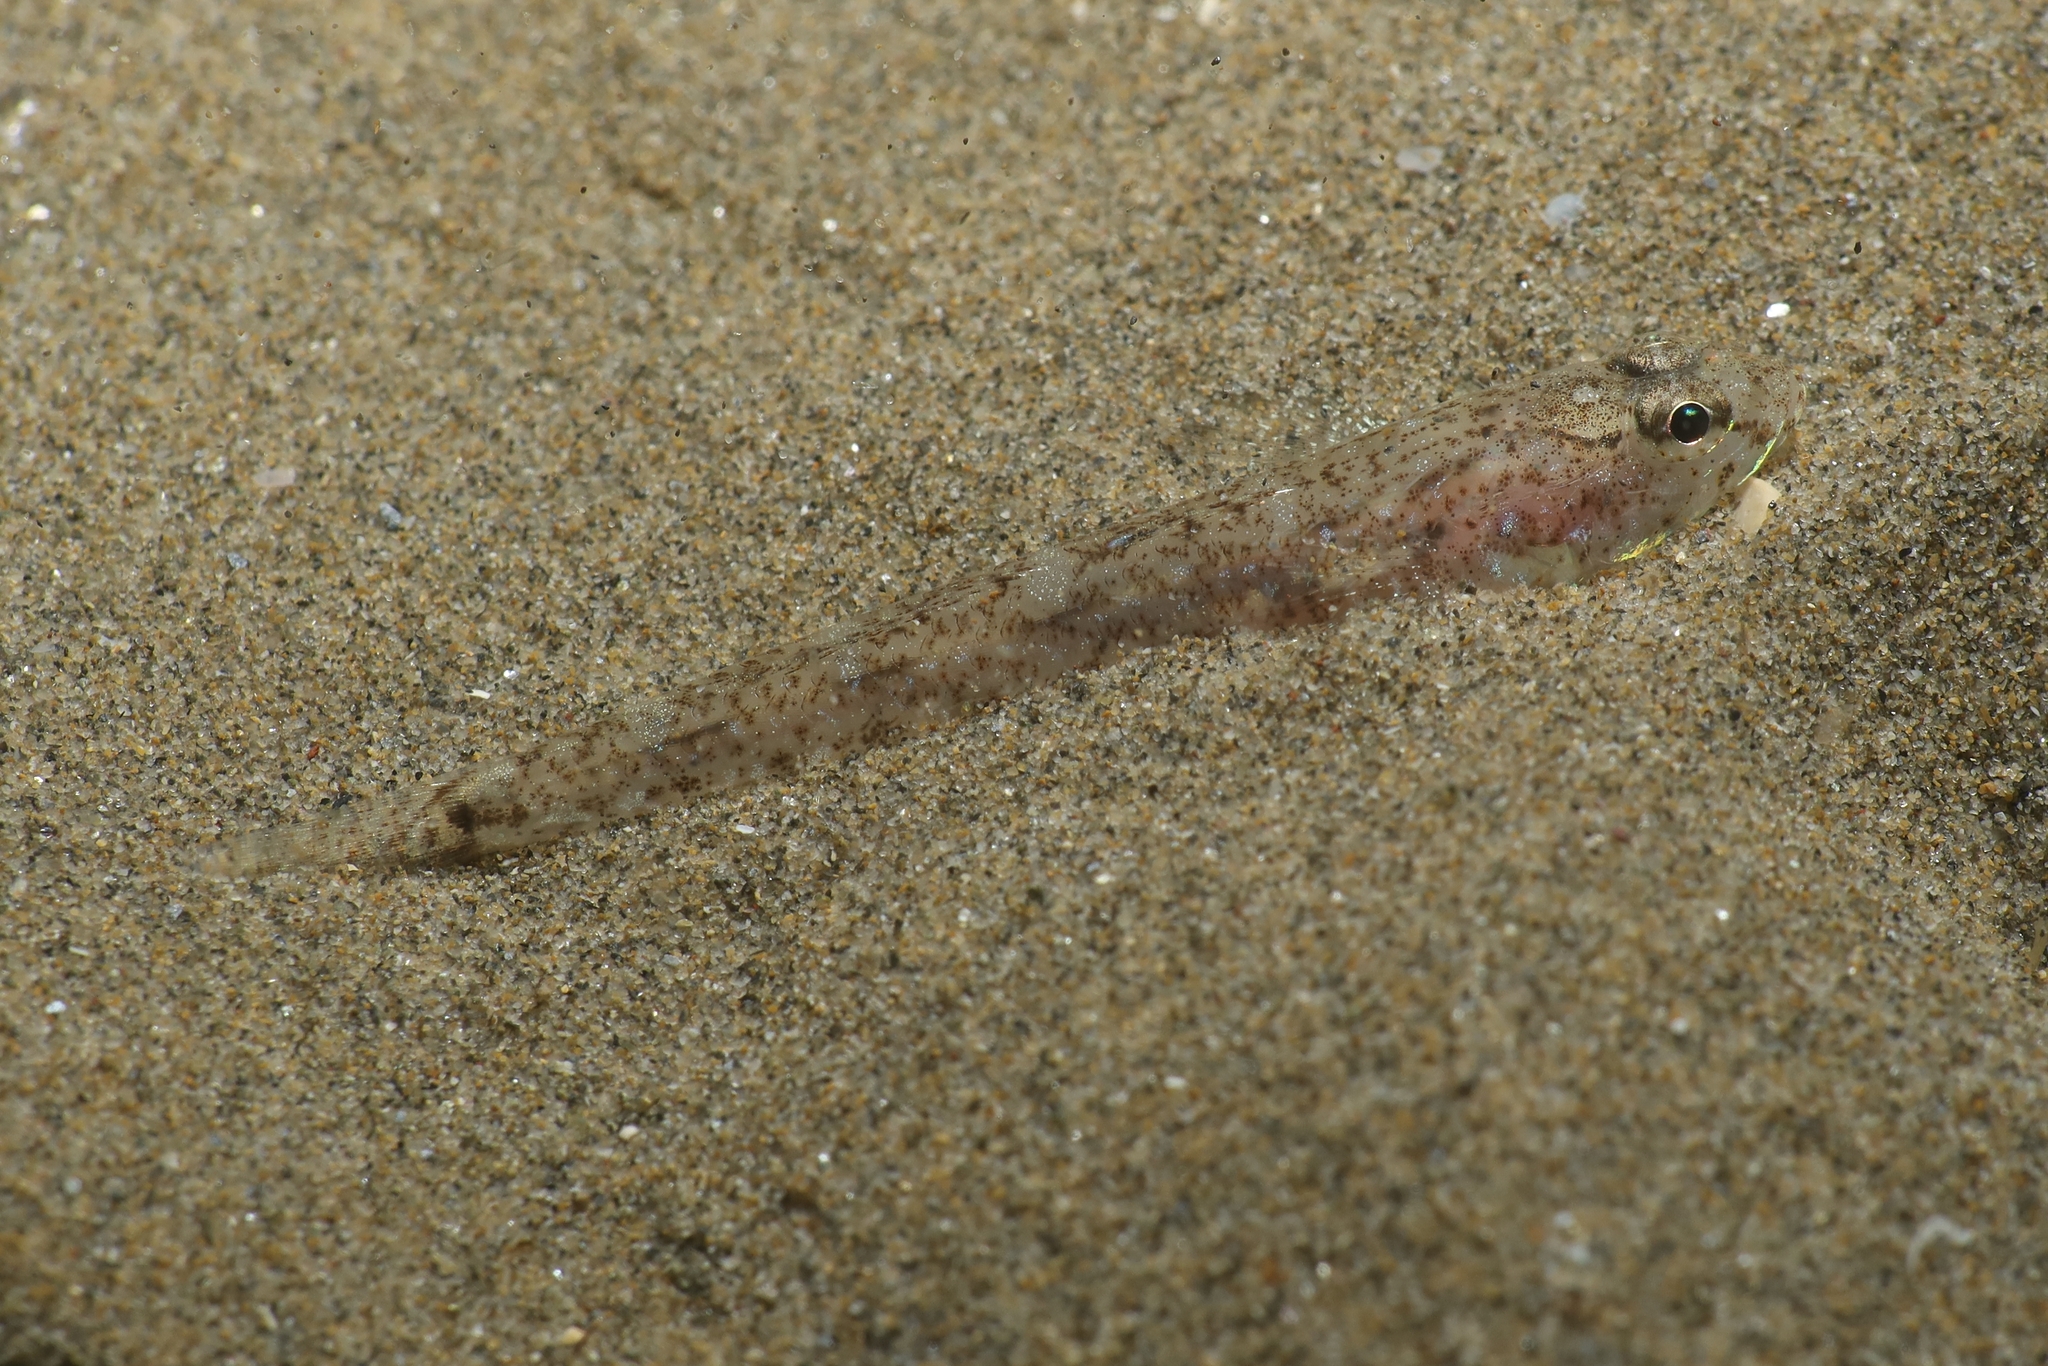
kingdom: Animalia
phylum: Chordata
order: Perciformes
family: Gobiidae
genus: Pomatoschistus
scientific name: Pomatoschistus marmoratus
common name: Marbled goby
